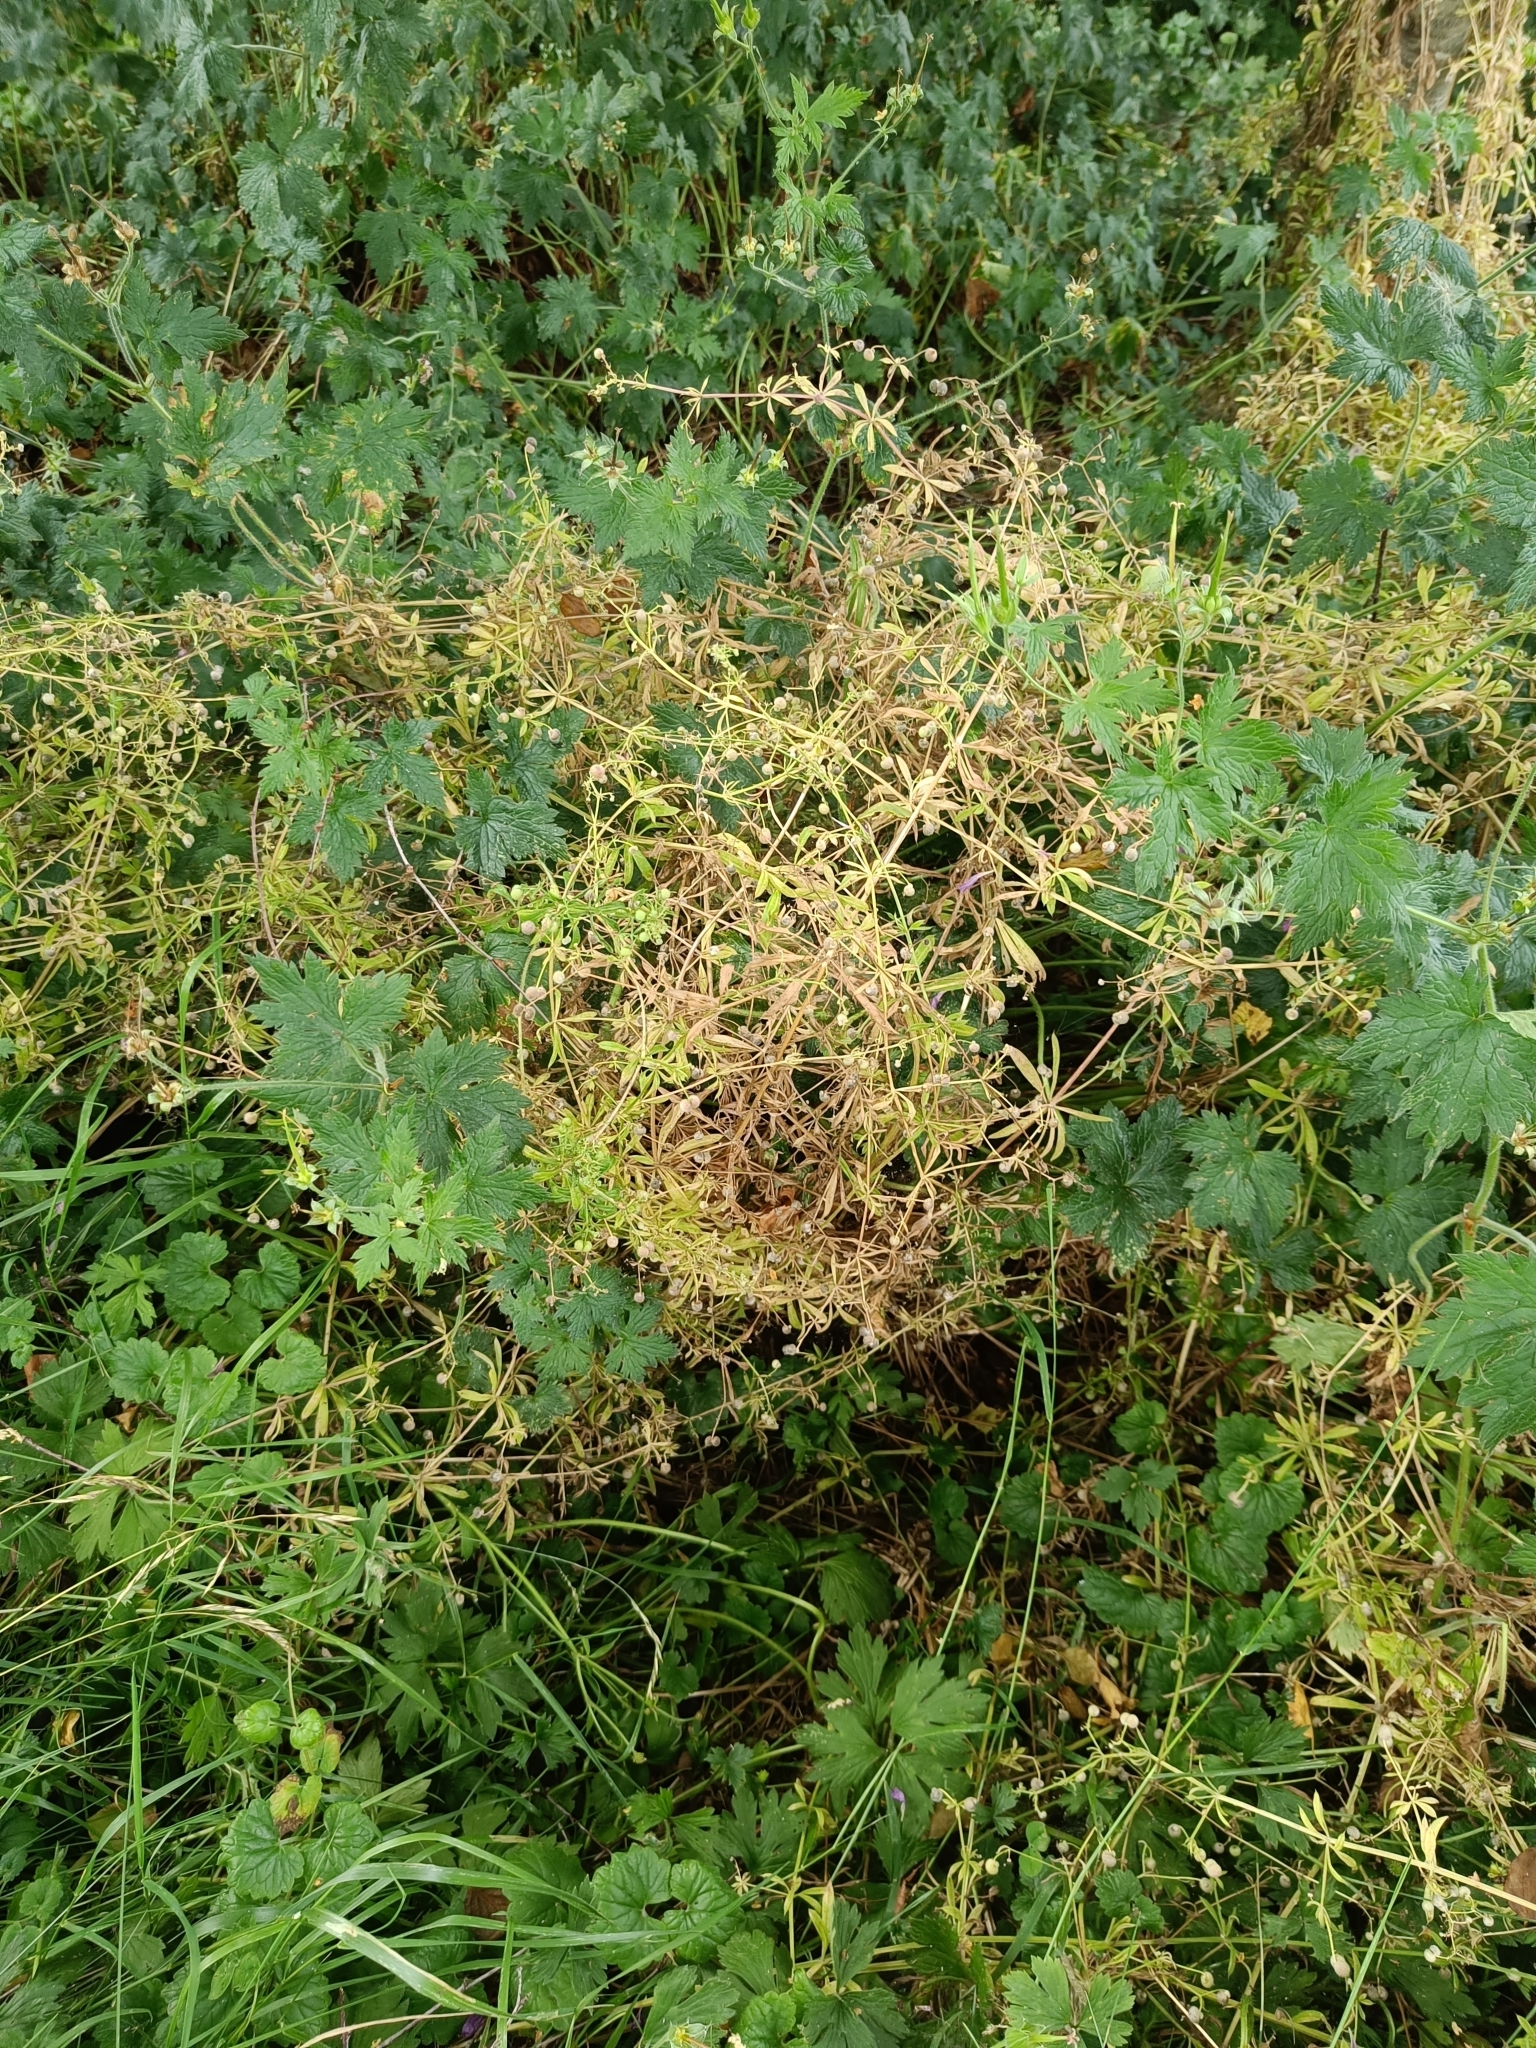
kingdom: Plantae
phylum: Tracheophyta
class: Magnoliopsida
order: Gentianales
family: Rubiaceae
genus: Galium
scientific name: Galium aparine
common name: Cleavers
